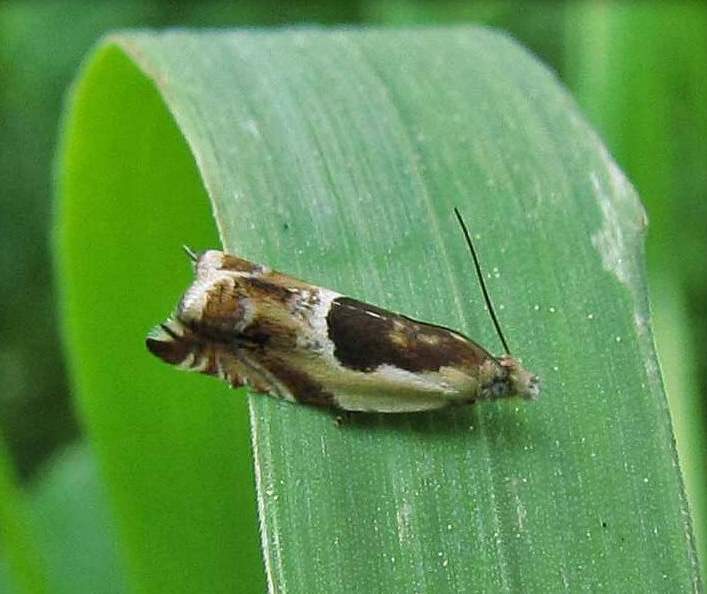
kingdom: Animalia
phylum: Arthropoda
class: Insecta
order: Lepidoptera
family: Tortricidae
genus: Ancylis
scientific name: Ancylis subaequana
